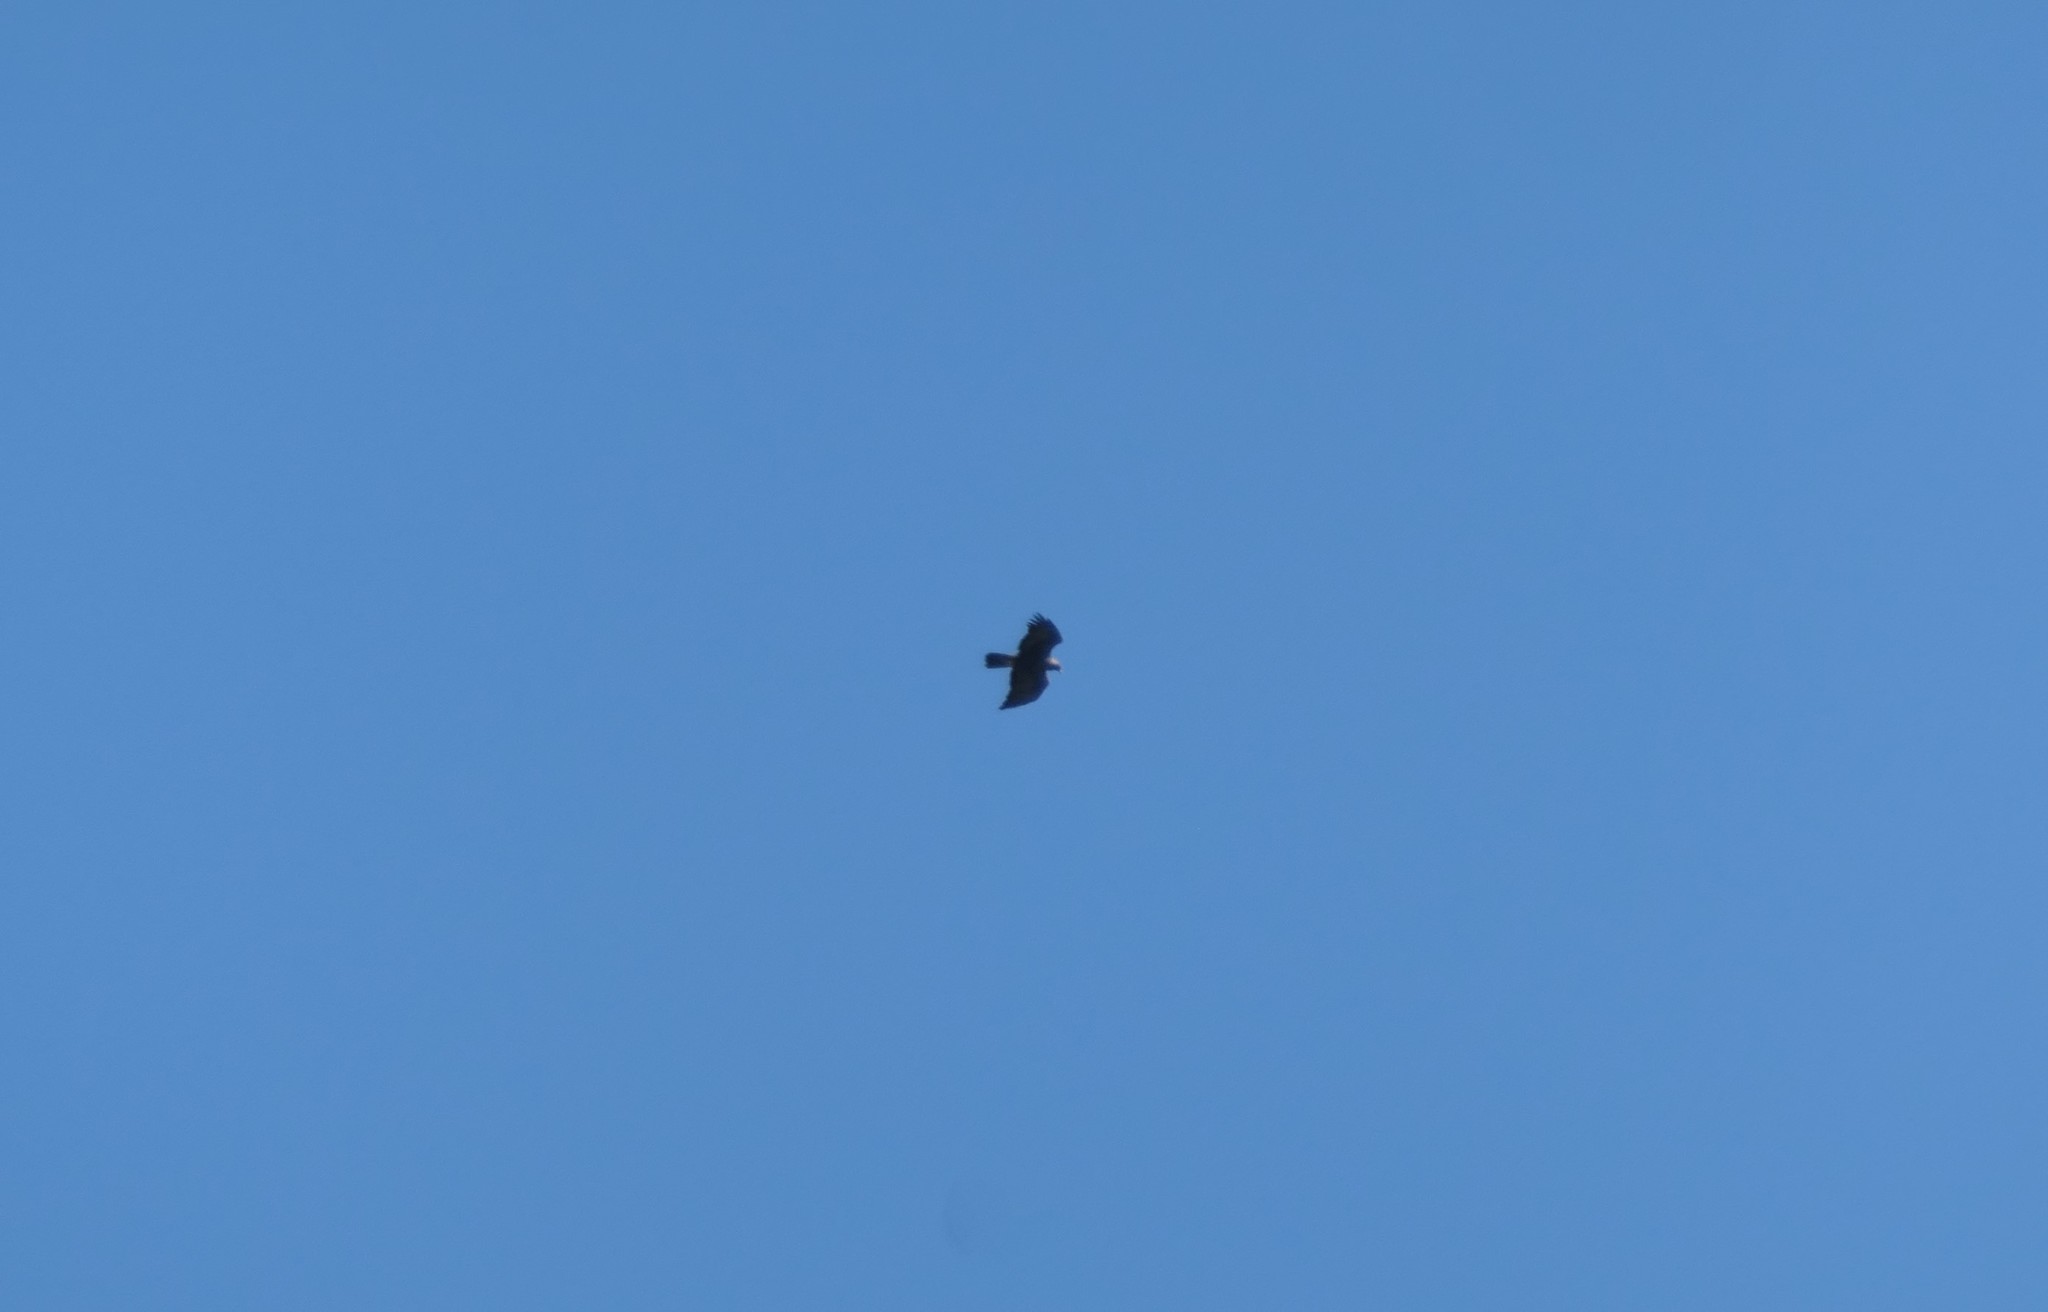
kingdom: Animalia
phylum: Chordata
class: Aves
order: Accipitriformes
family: Accipitridae
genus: Aquila
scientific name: Aquila chrysaetos
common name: Golden eagle
